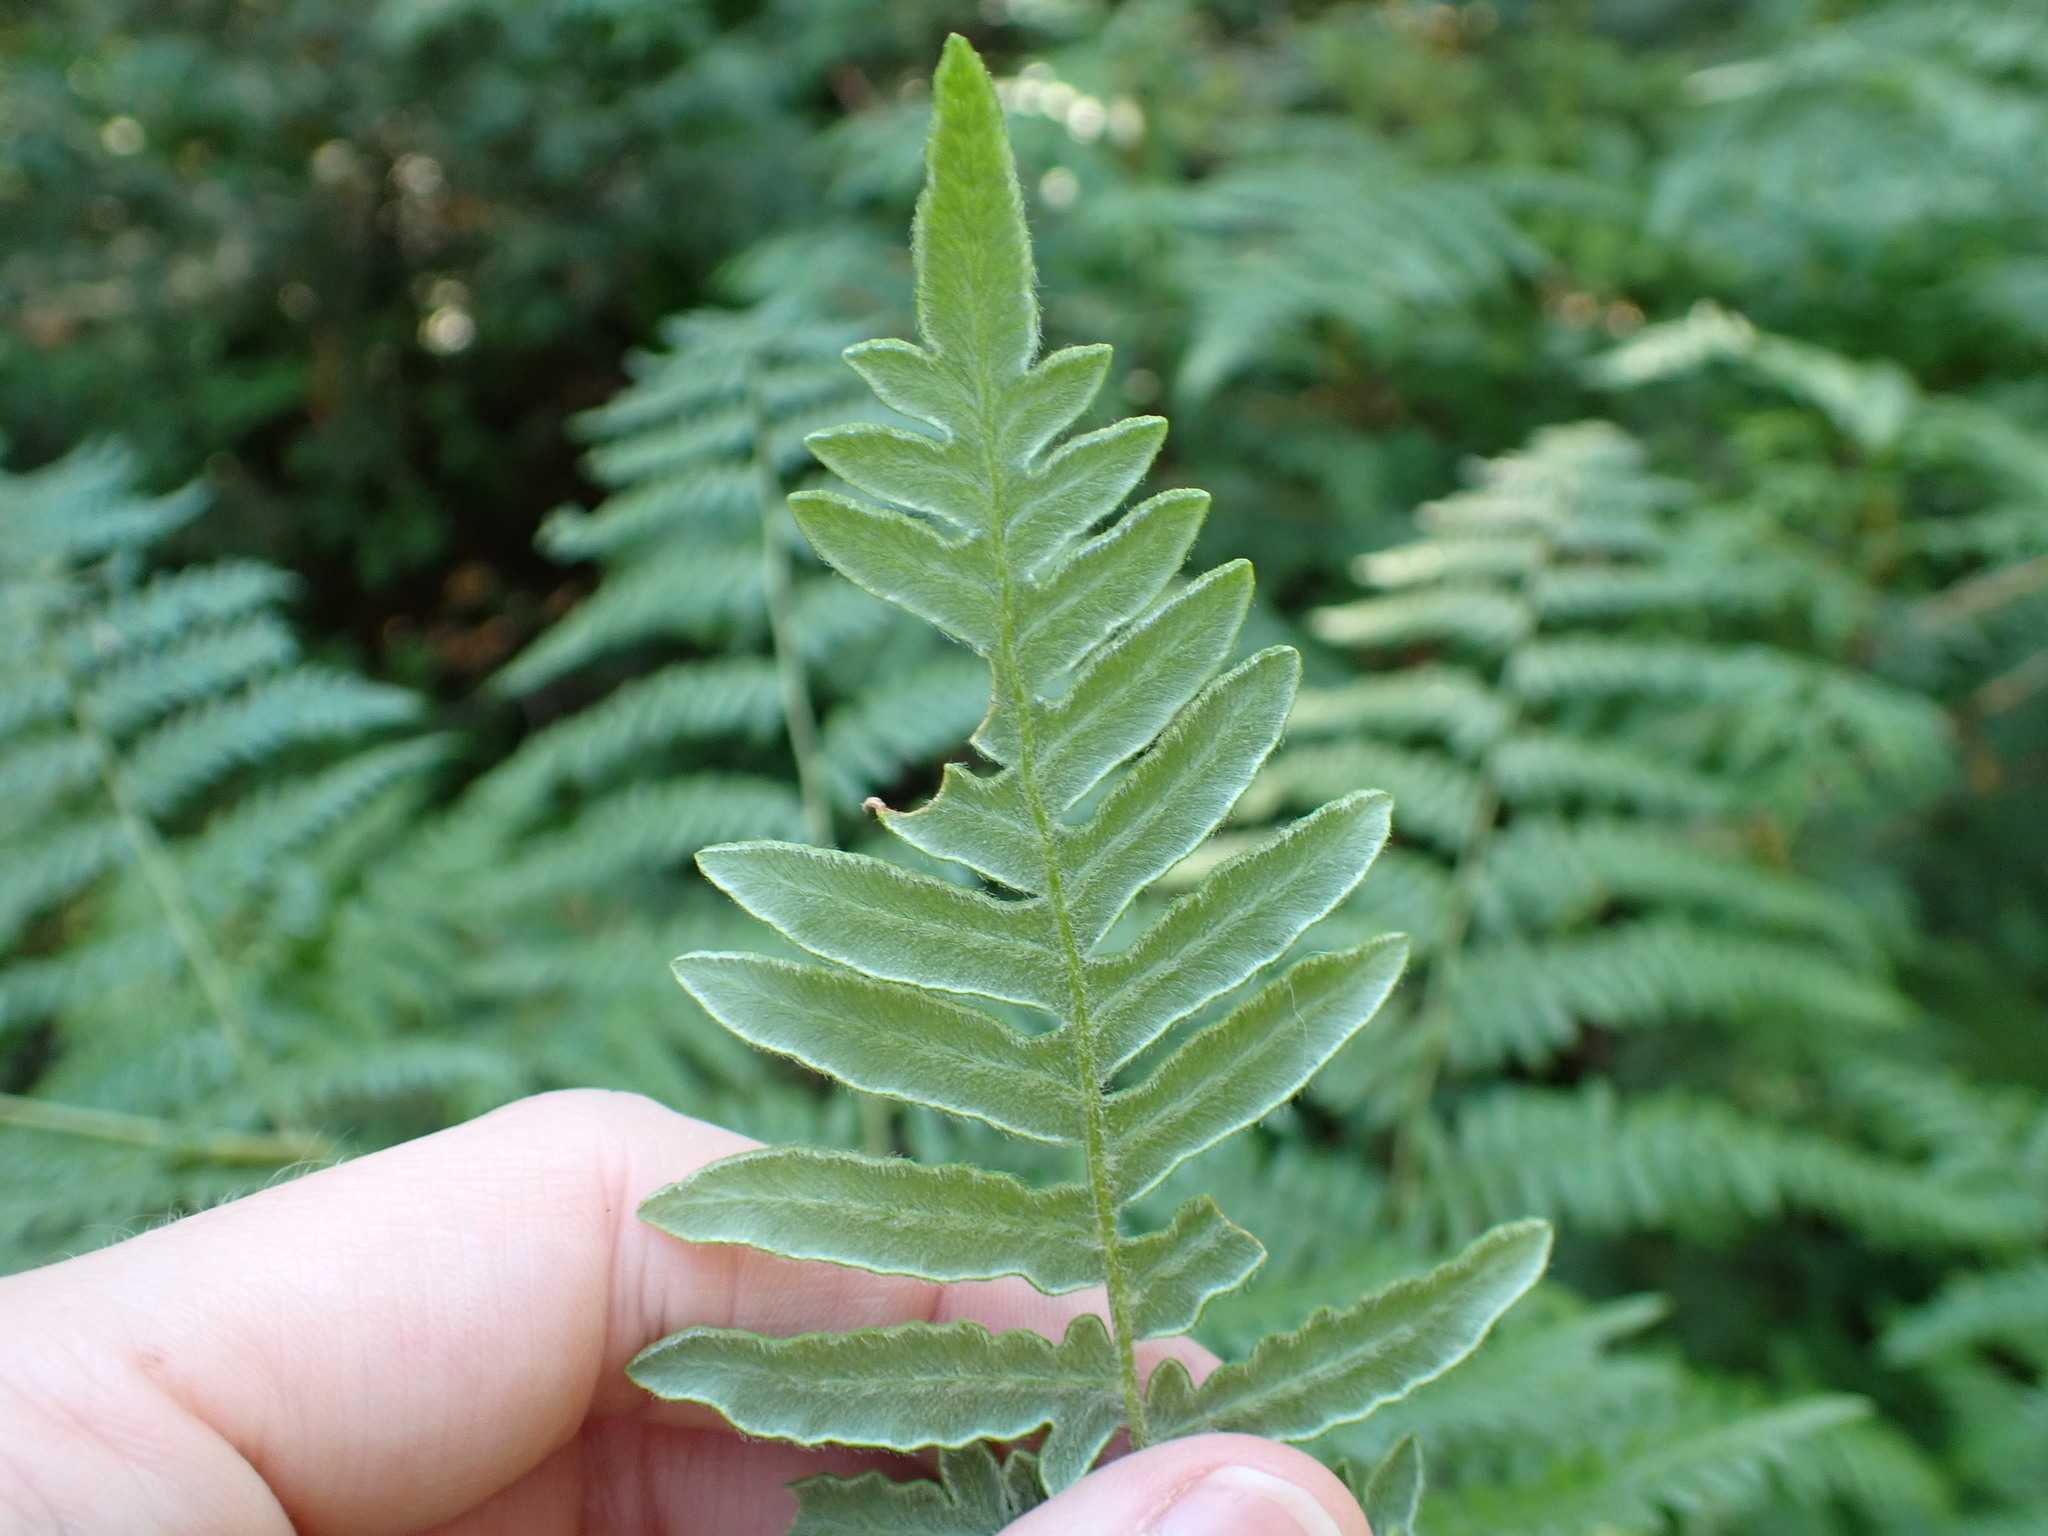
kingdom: Plantae
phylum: Tracheophyta
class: Polypodiopsida
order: Polypodiales
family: Dennstaedtiaceae
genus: Pteridium
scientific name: Pteridium aquilinum
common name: Bracken
